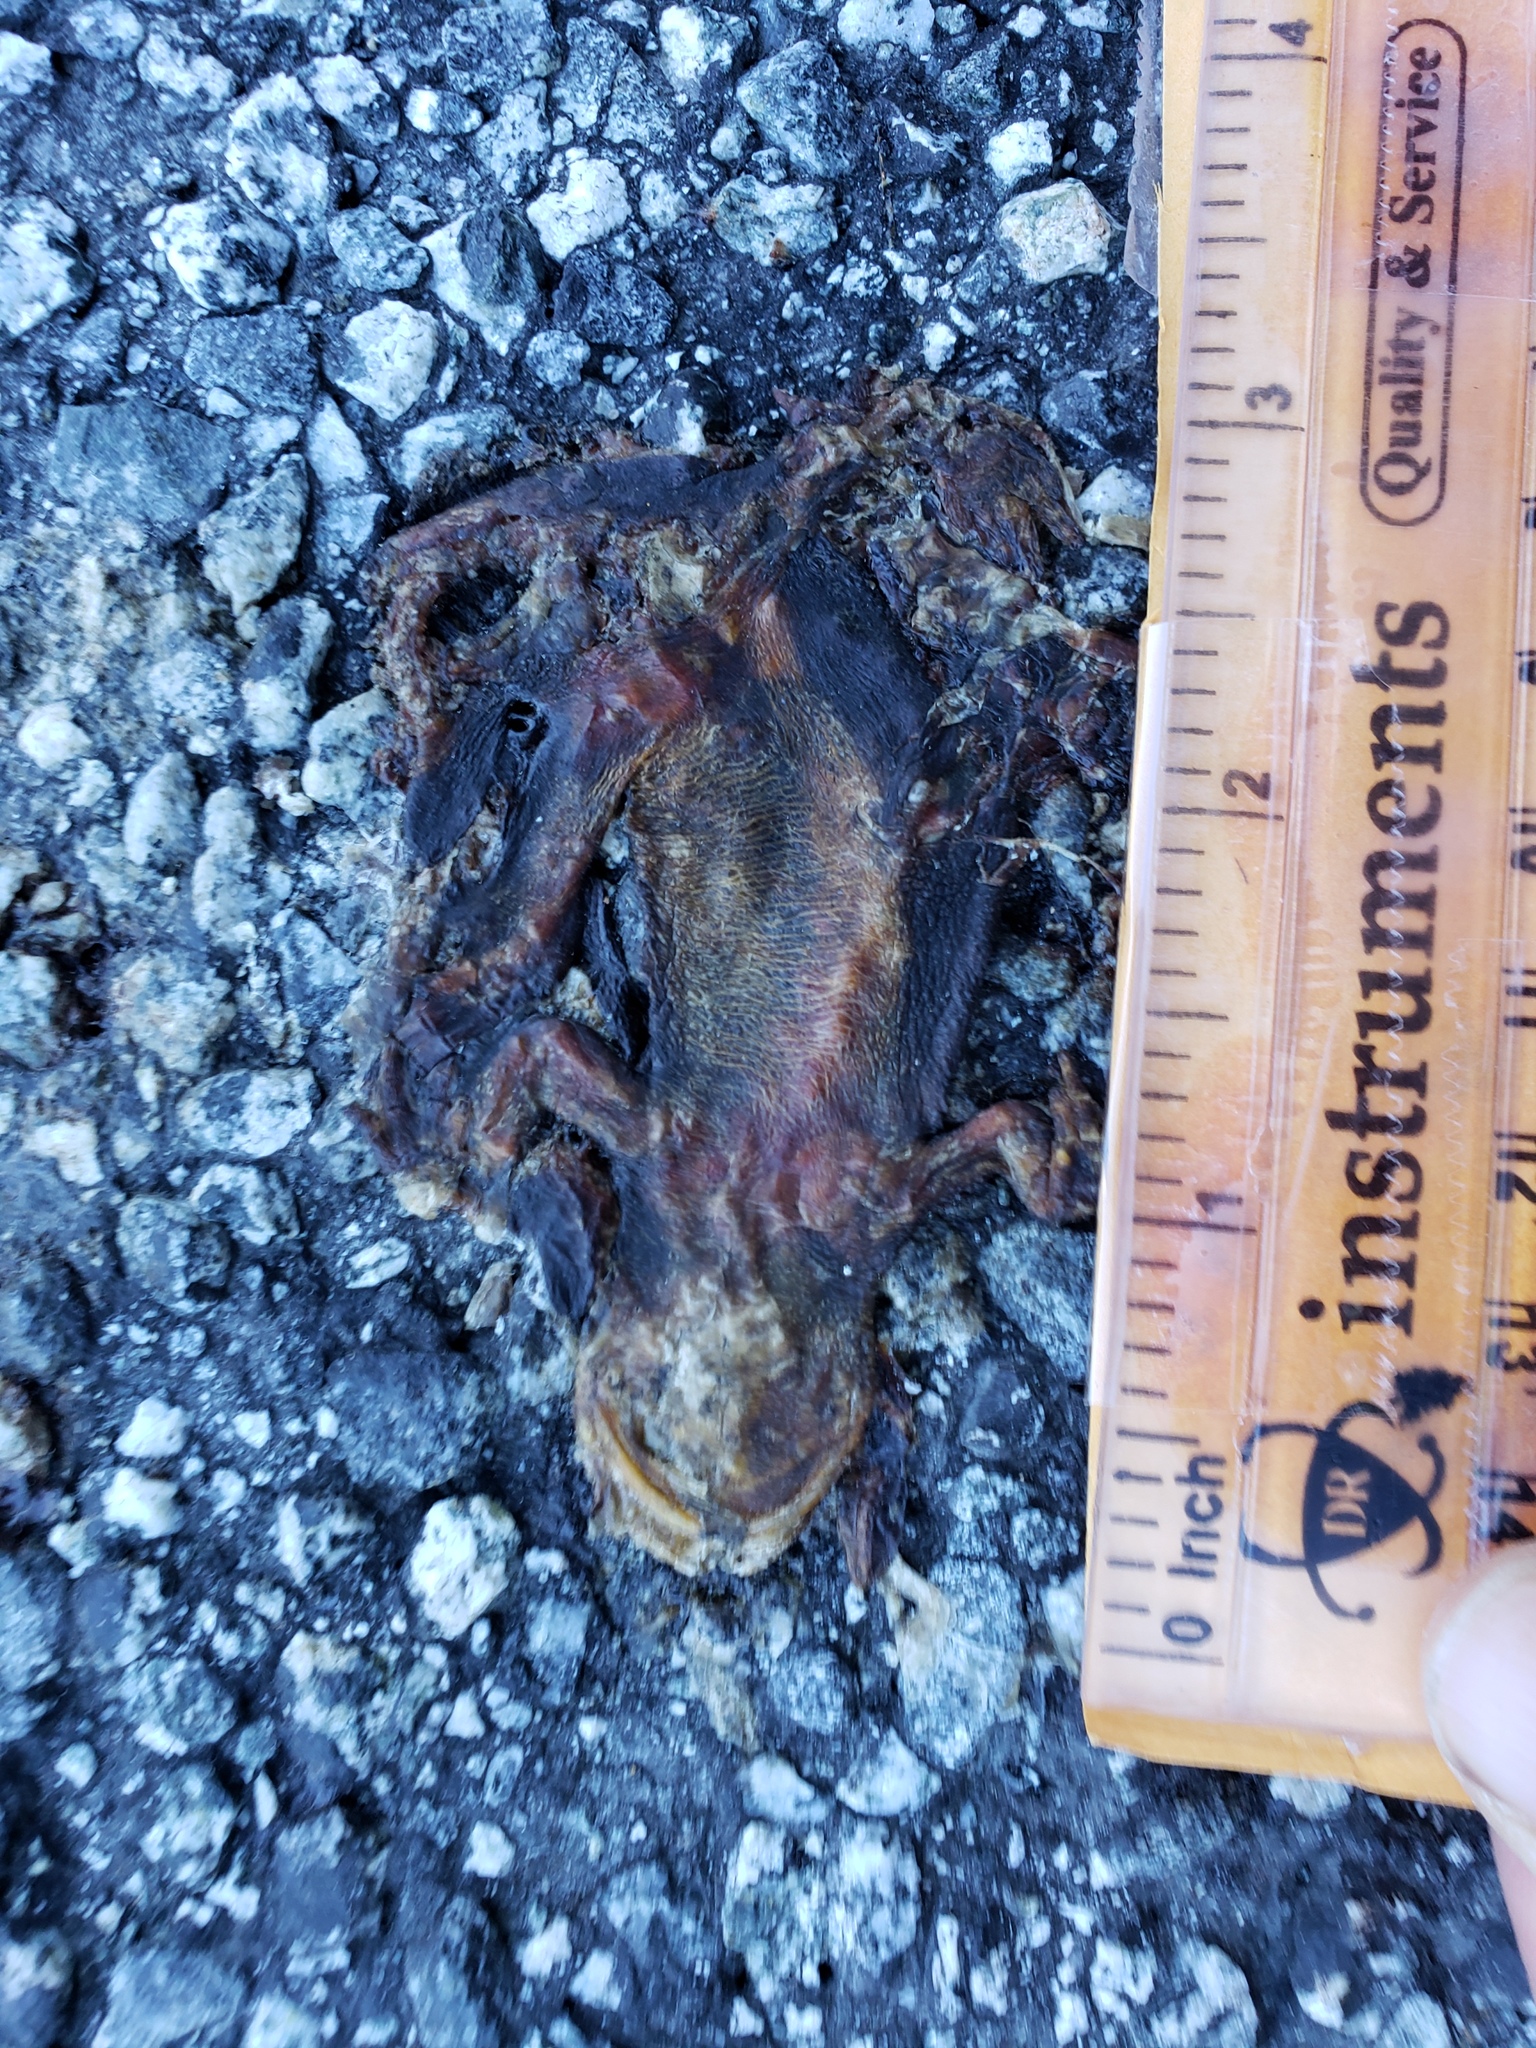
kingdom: Animalia
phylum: Chordata
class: Amphibia
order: Caudata
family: Salamandridae
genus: Taricha
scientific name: Taricha
